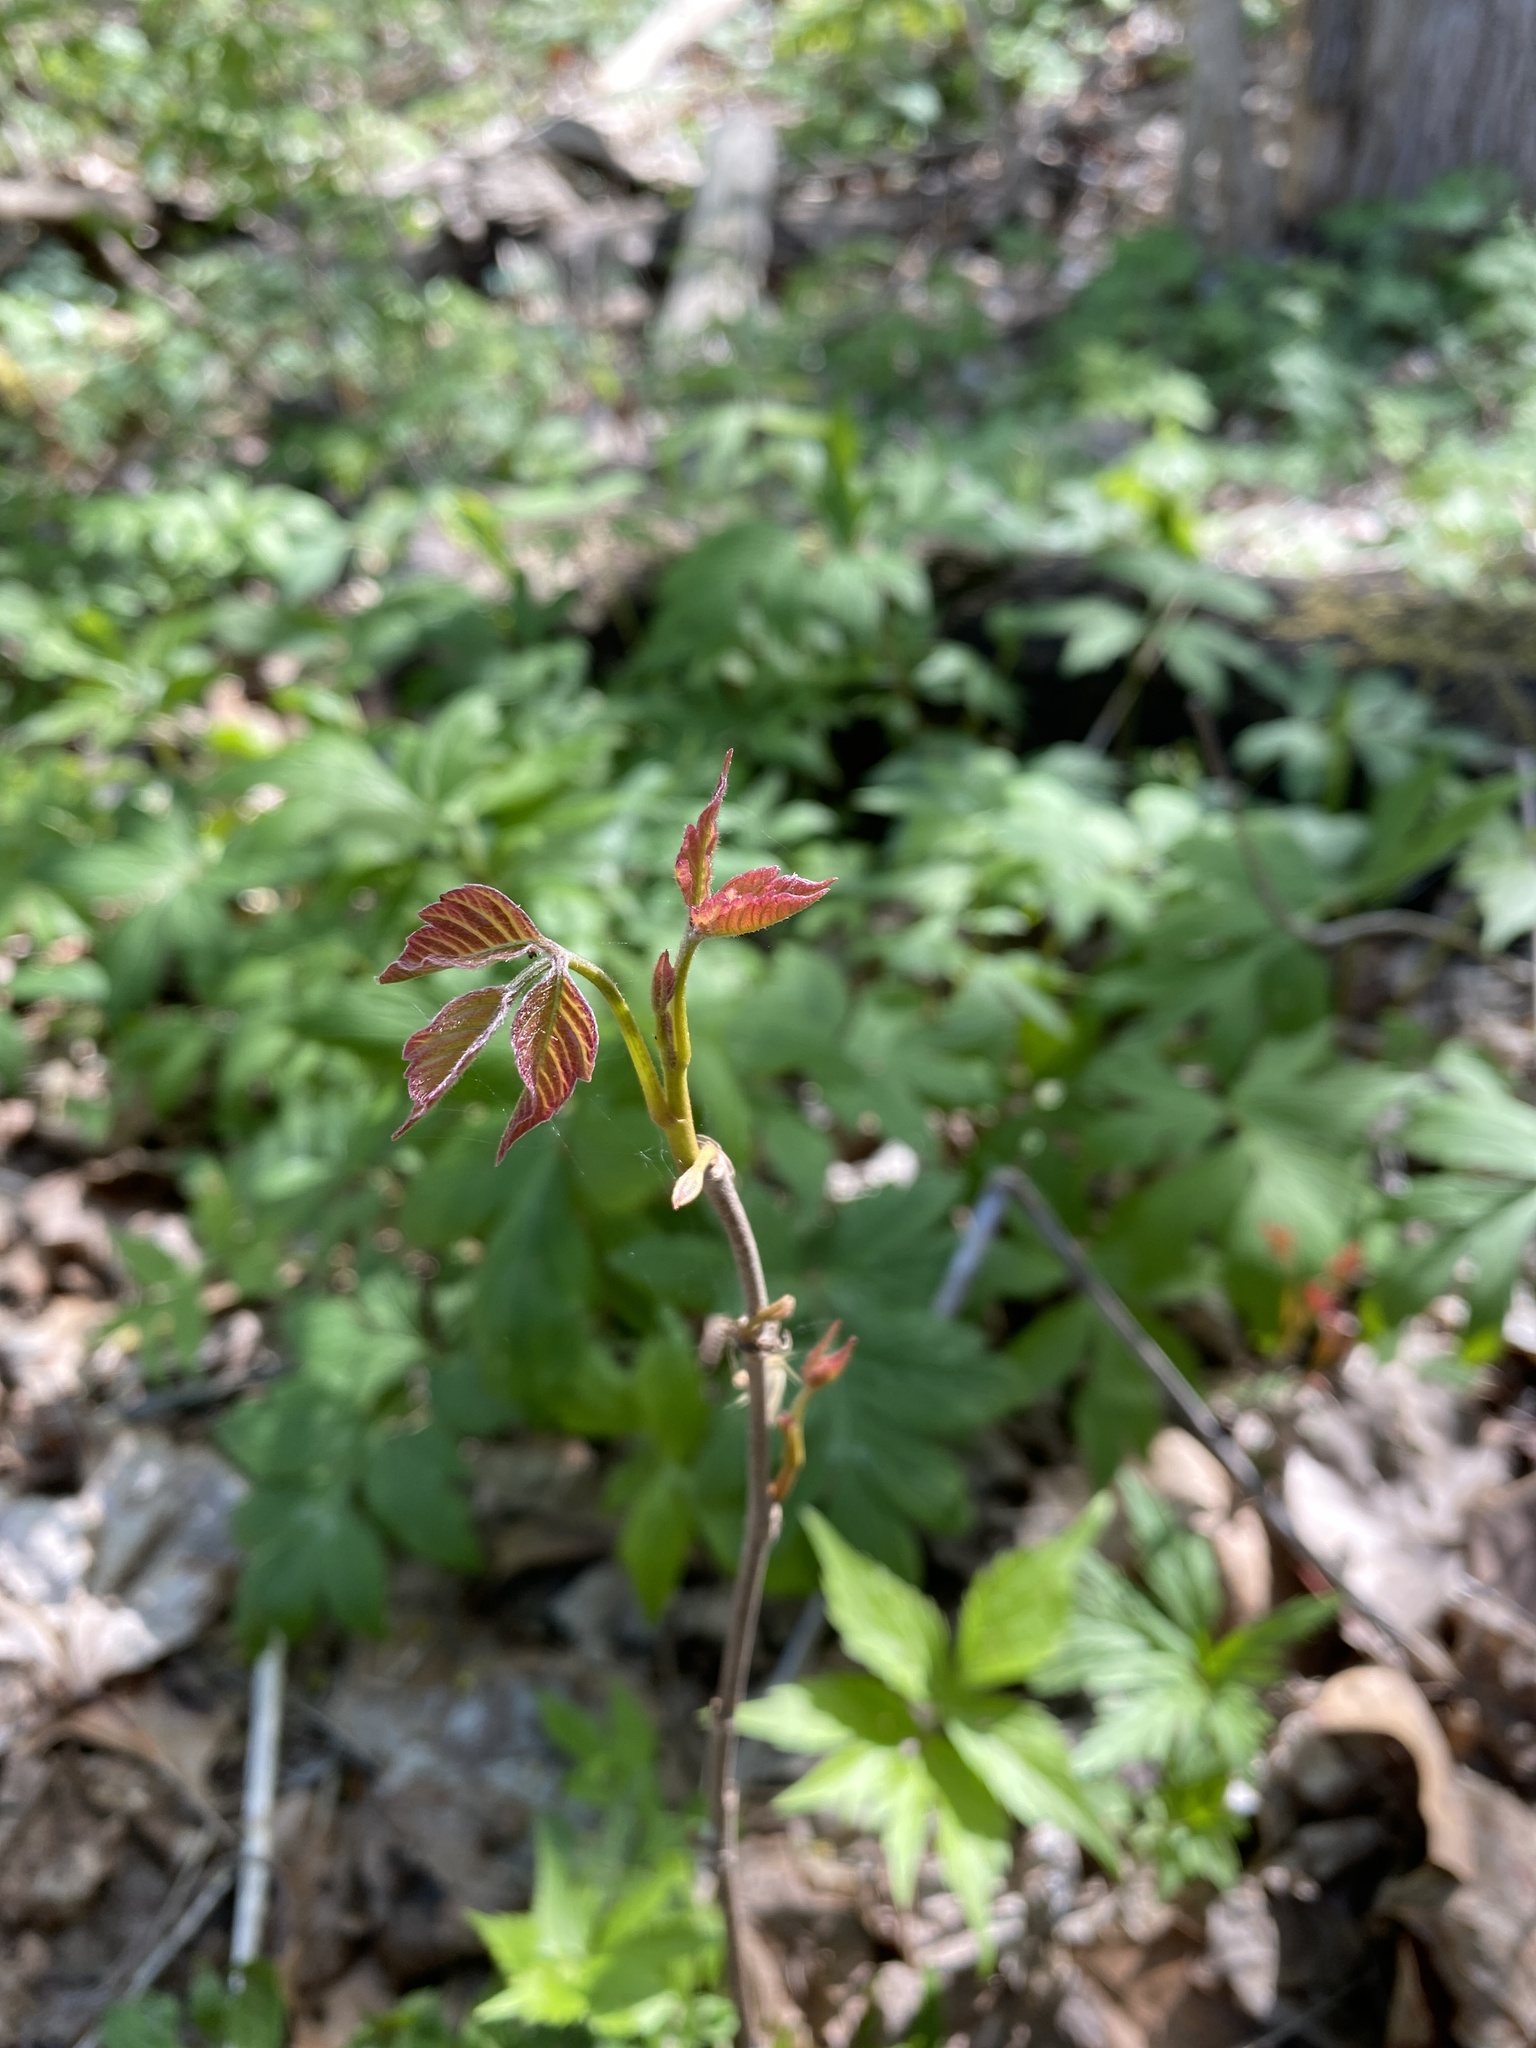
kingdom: Plantae
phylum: Tracheophyta
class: Magnoliopsida
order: Sapindales
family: Anacardiaceae
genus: Toxicodendron
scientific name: Toxicodendron radicans
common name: Poison ivy
